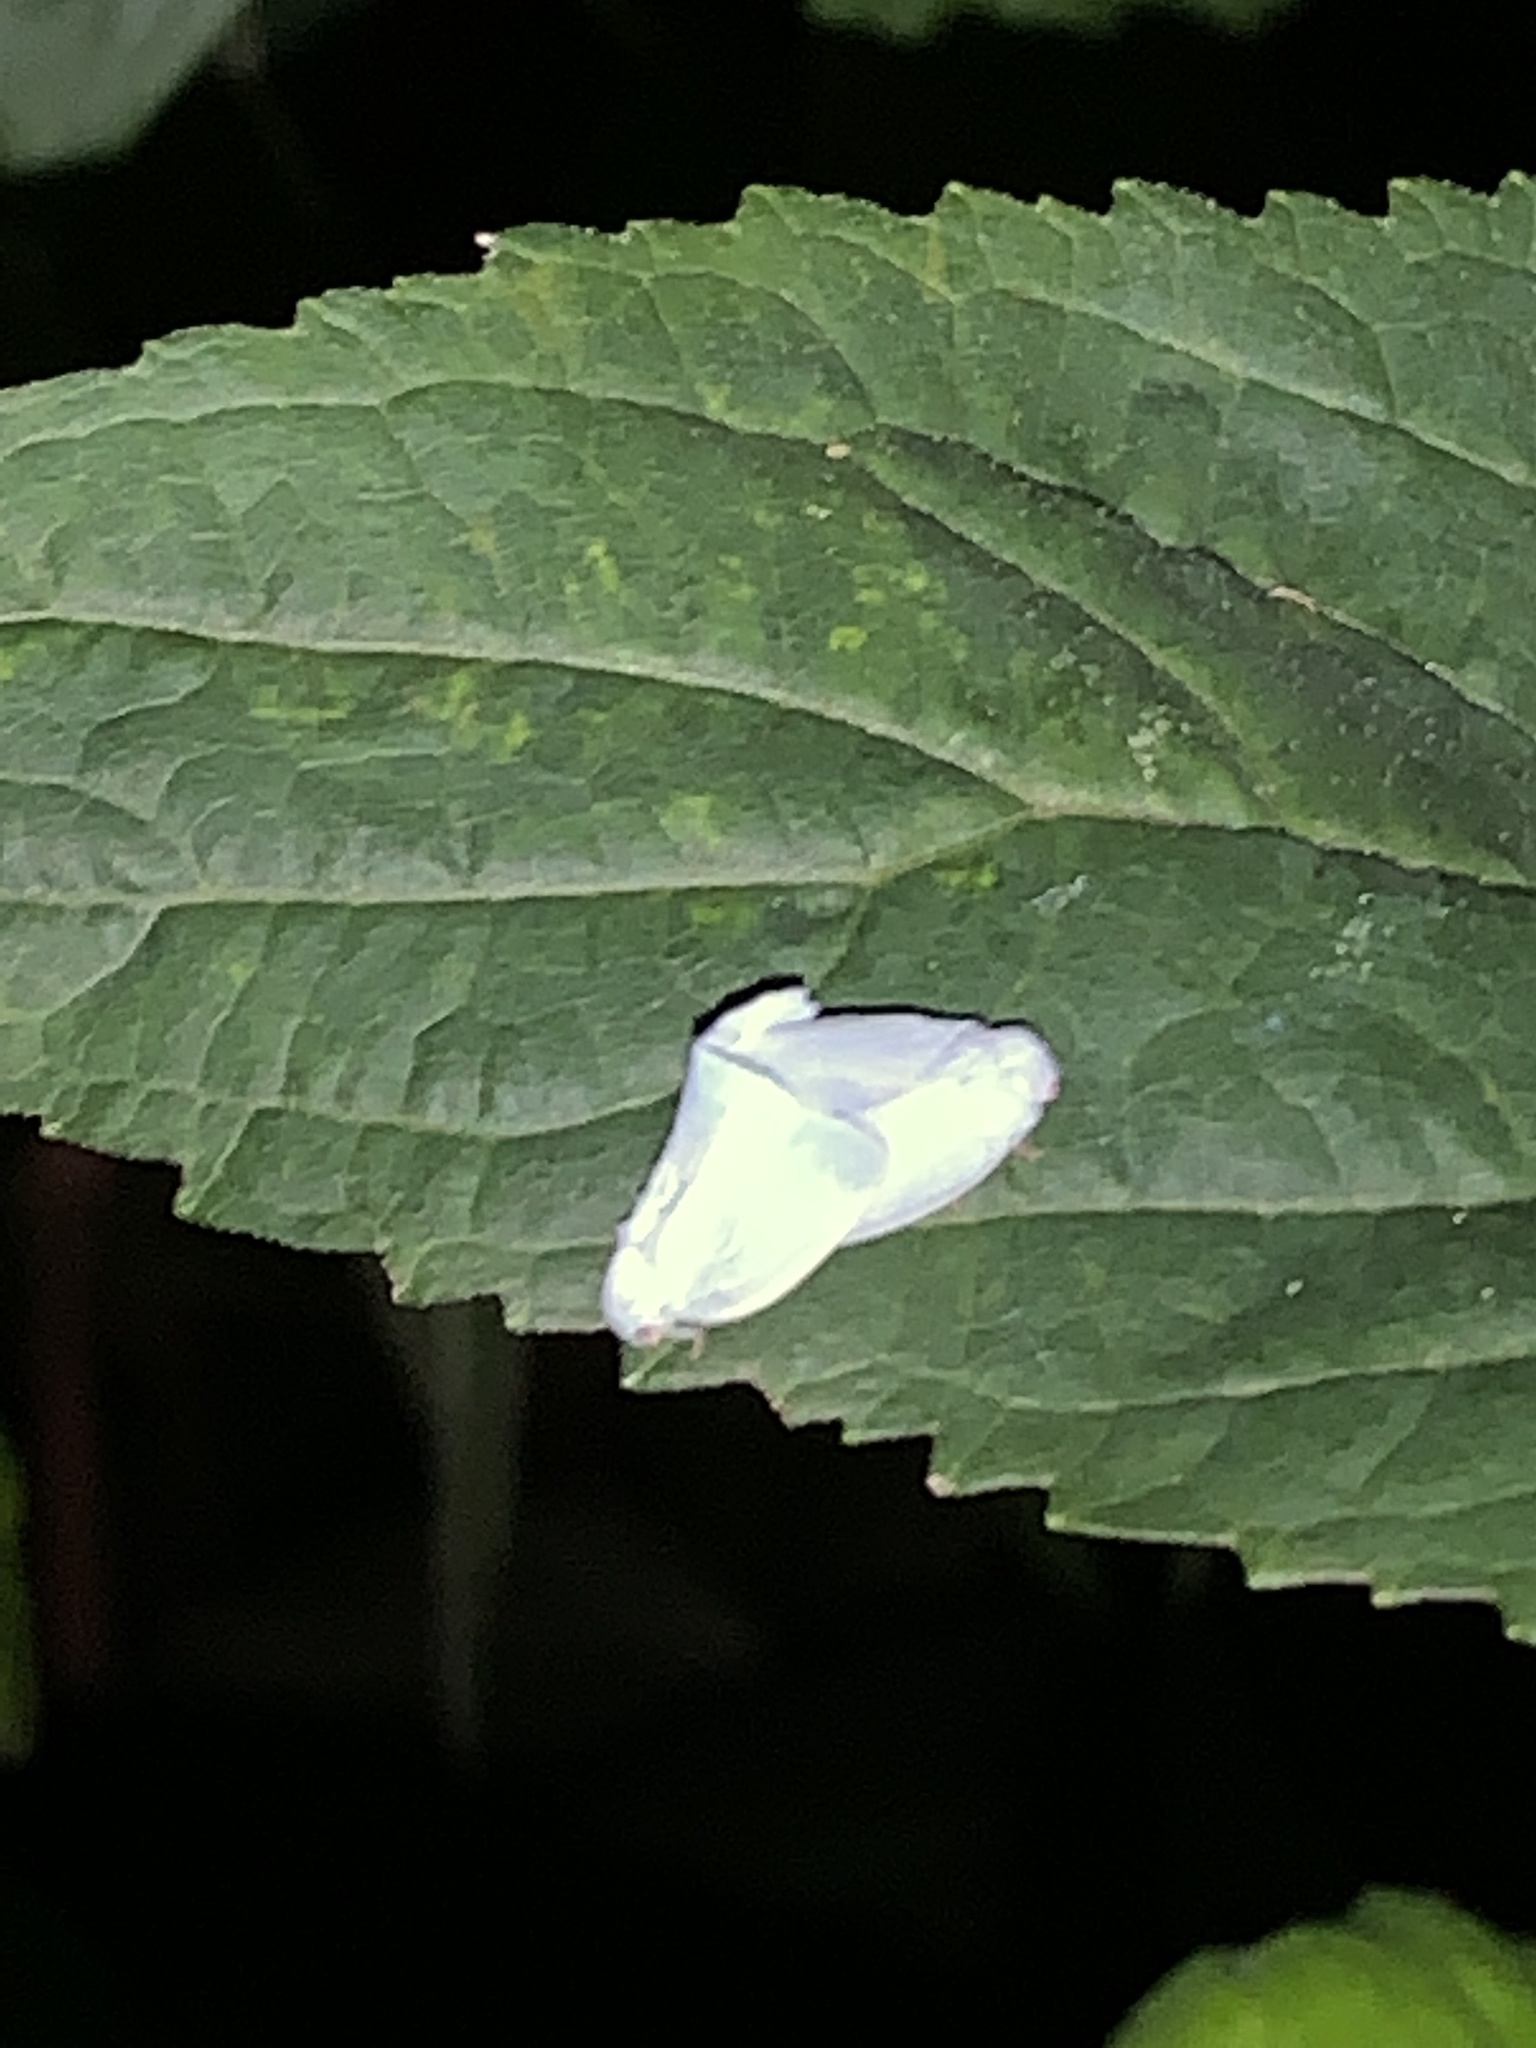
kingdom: Animalia
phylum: Arthropoda
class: Insecta
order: Hemiptera
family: Flatidae
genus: Flatormenis
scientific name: Flatormenis proxima
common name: Northern flatid planthopper
